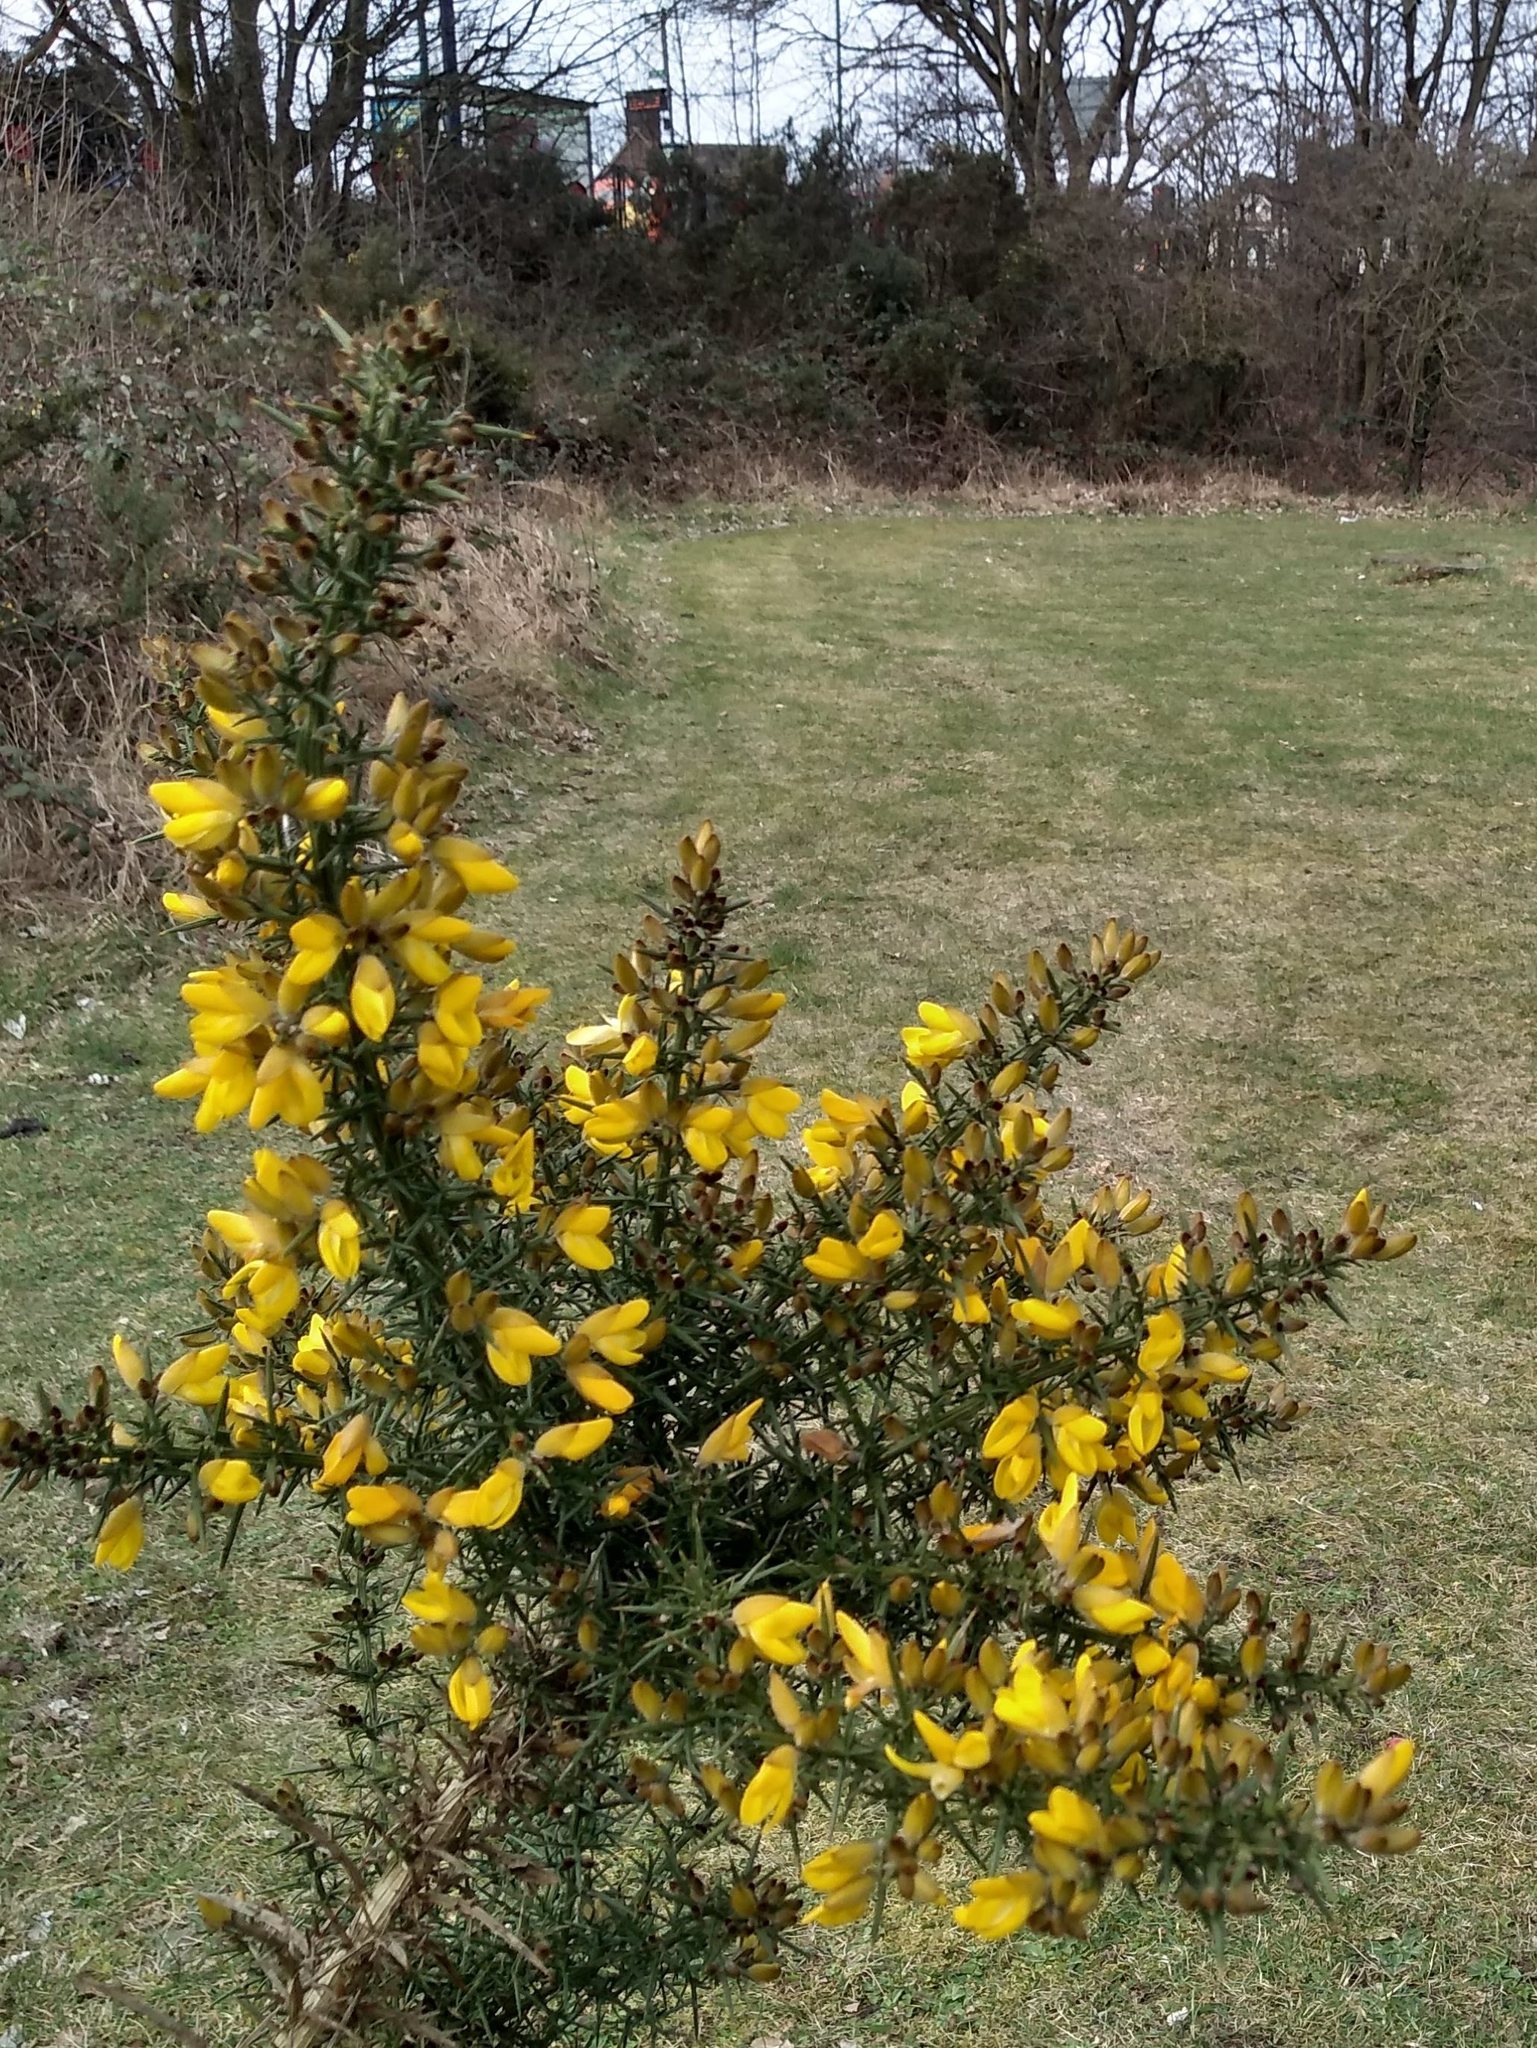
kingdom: Plantae
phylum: Tracheophyta
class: Magnoliopsida
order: Fabales
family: Fabaceae
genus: Ulex
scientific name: Ulex europaeus
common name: Common gorse
